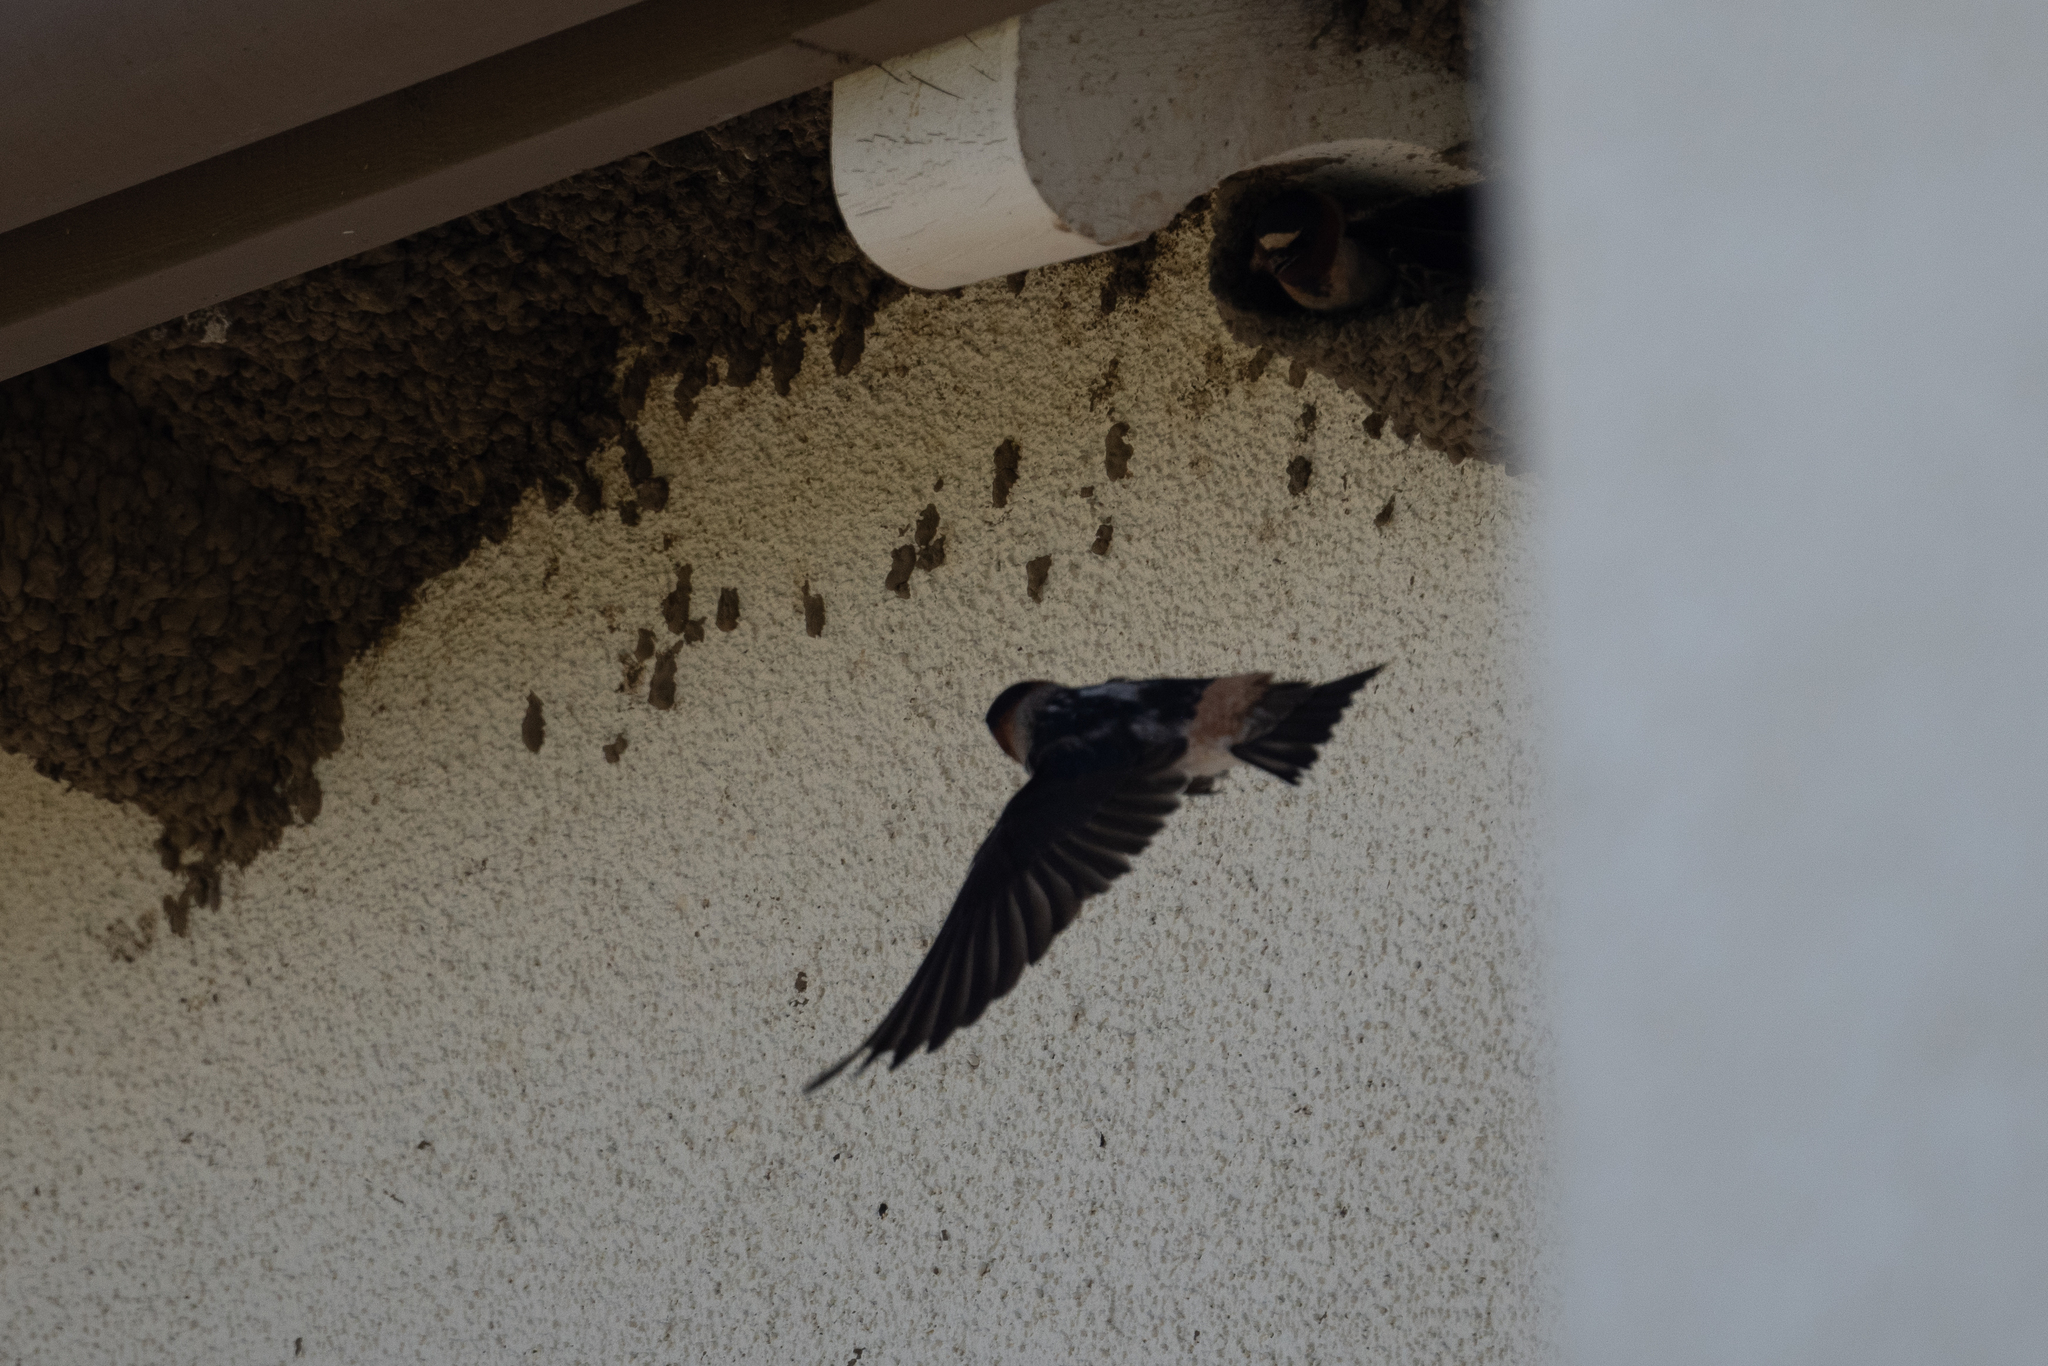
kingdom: Animalia
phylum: Chordata
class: Aves
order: Passeriformes
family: Hirundinidae
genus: Petrochelidon
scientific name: Petrochelidon pyrrhonota
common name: American cliff swallow
